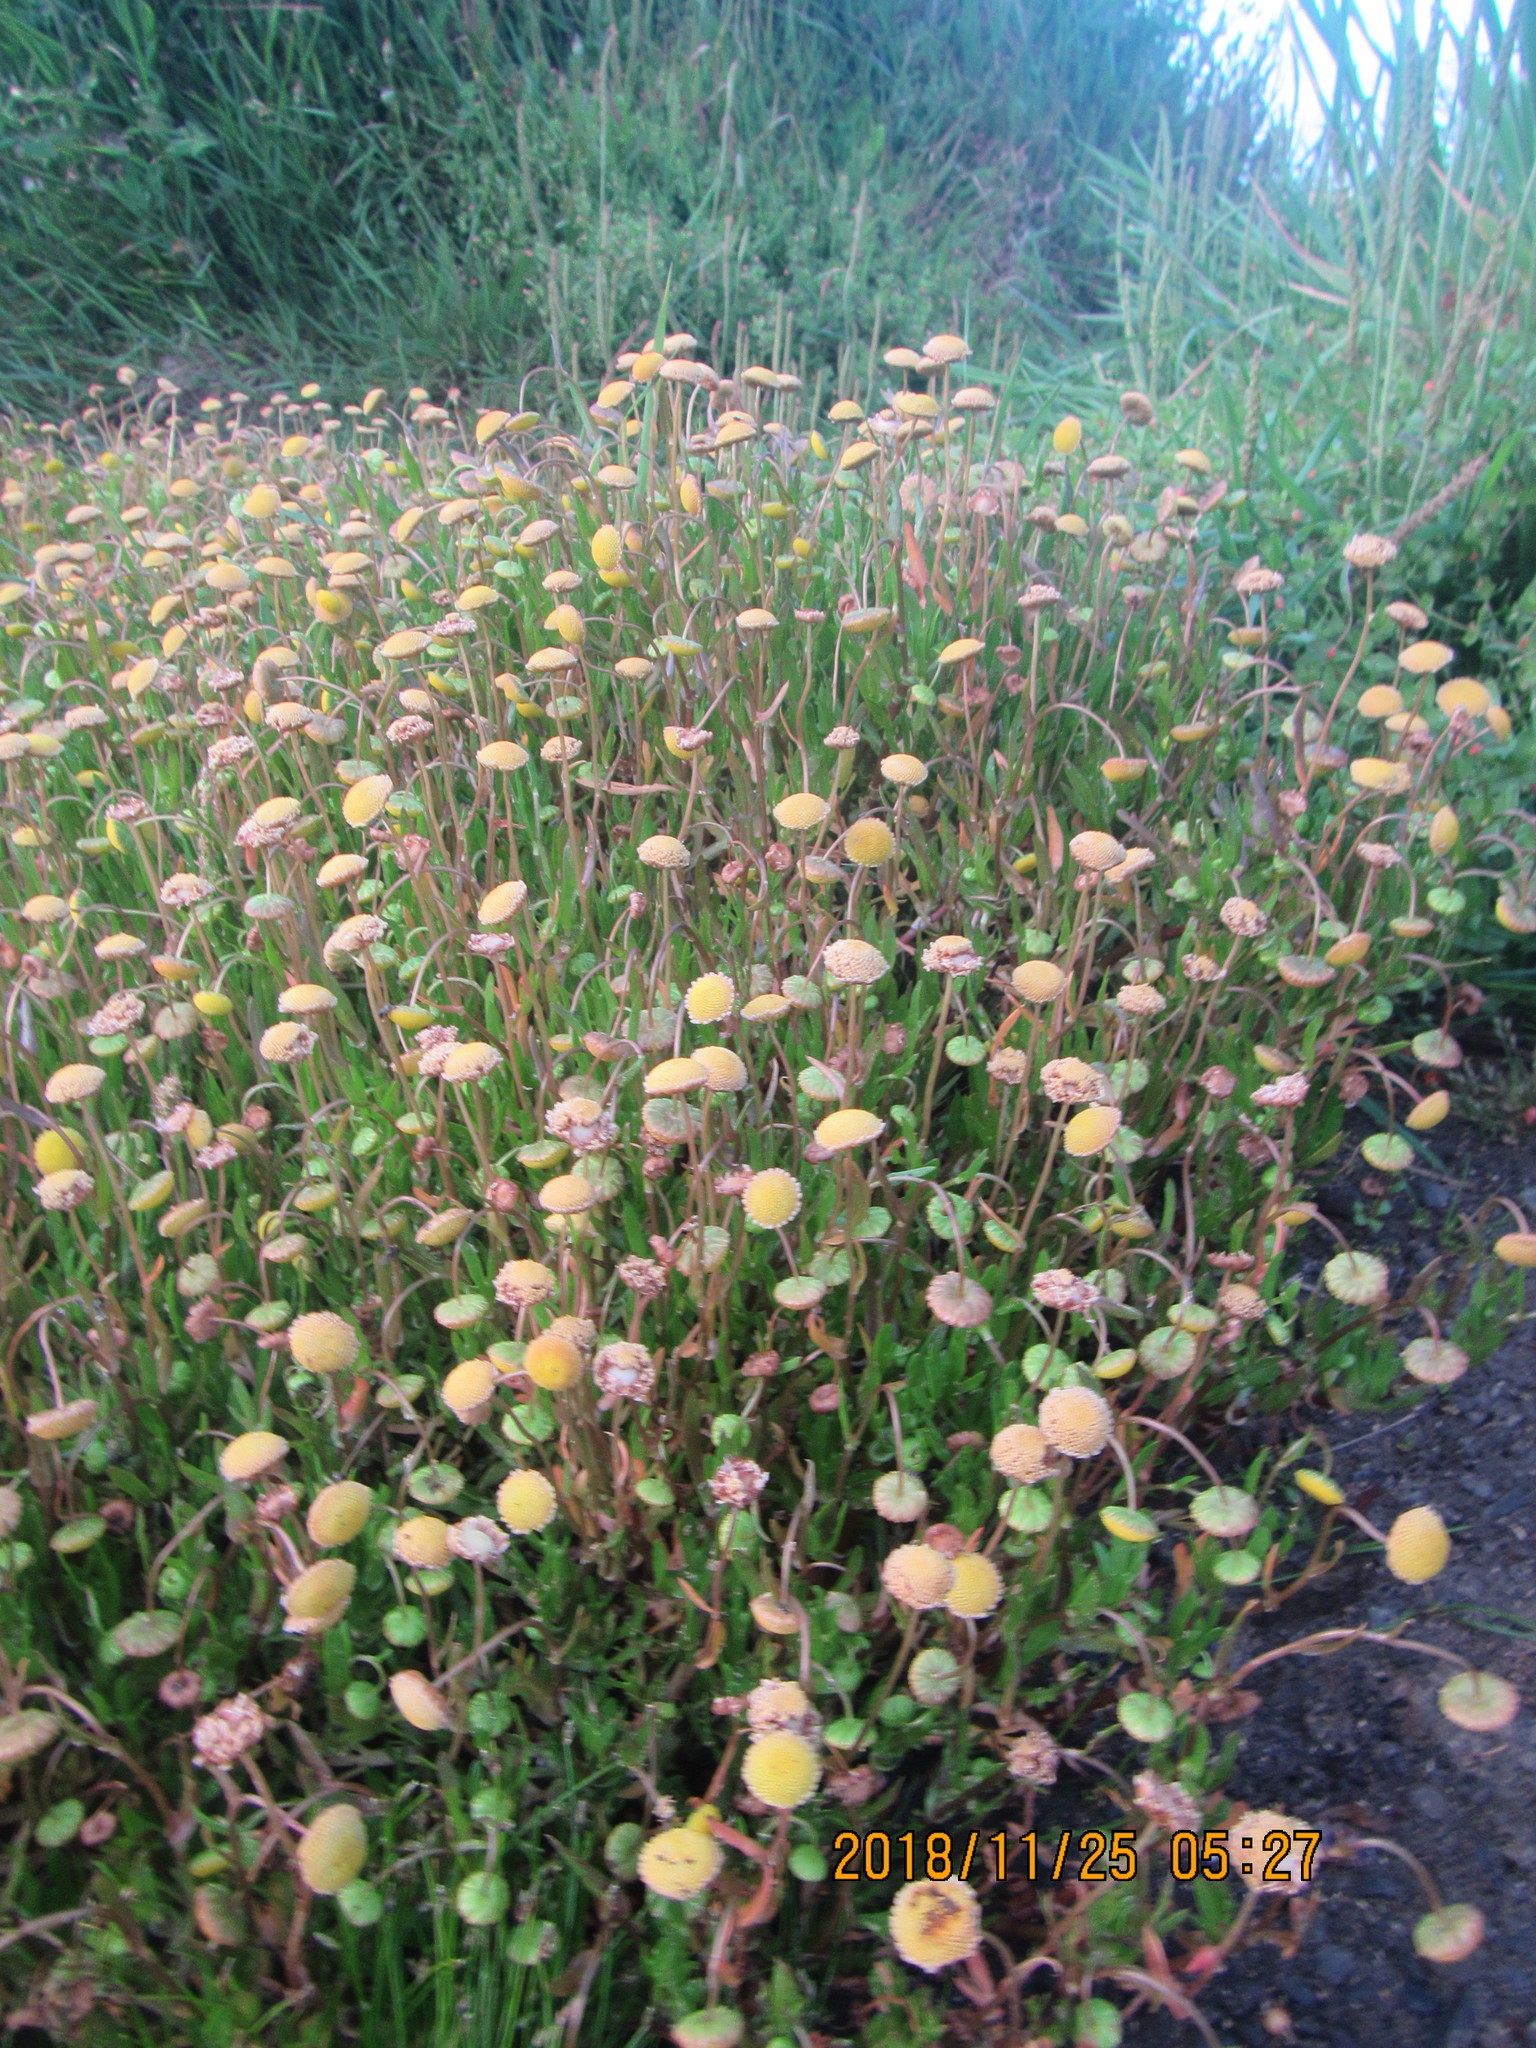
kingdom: Plantae
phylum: Tracheophyta
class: Magnoliopsida
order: Asterales
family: Asteraceae
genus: Cotula
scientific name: Cotula coronopifolia
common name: Buttonweed
